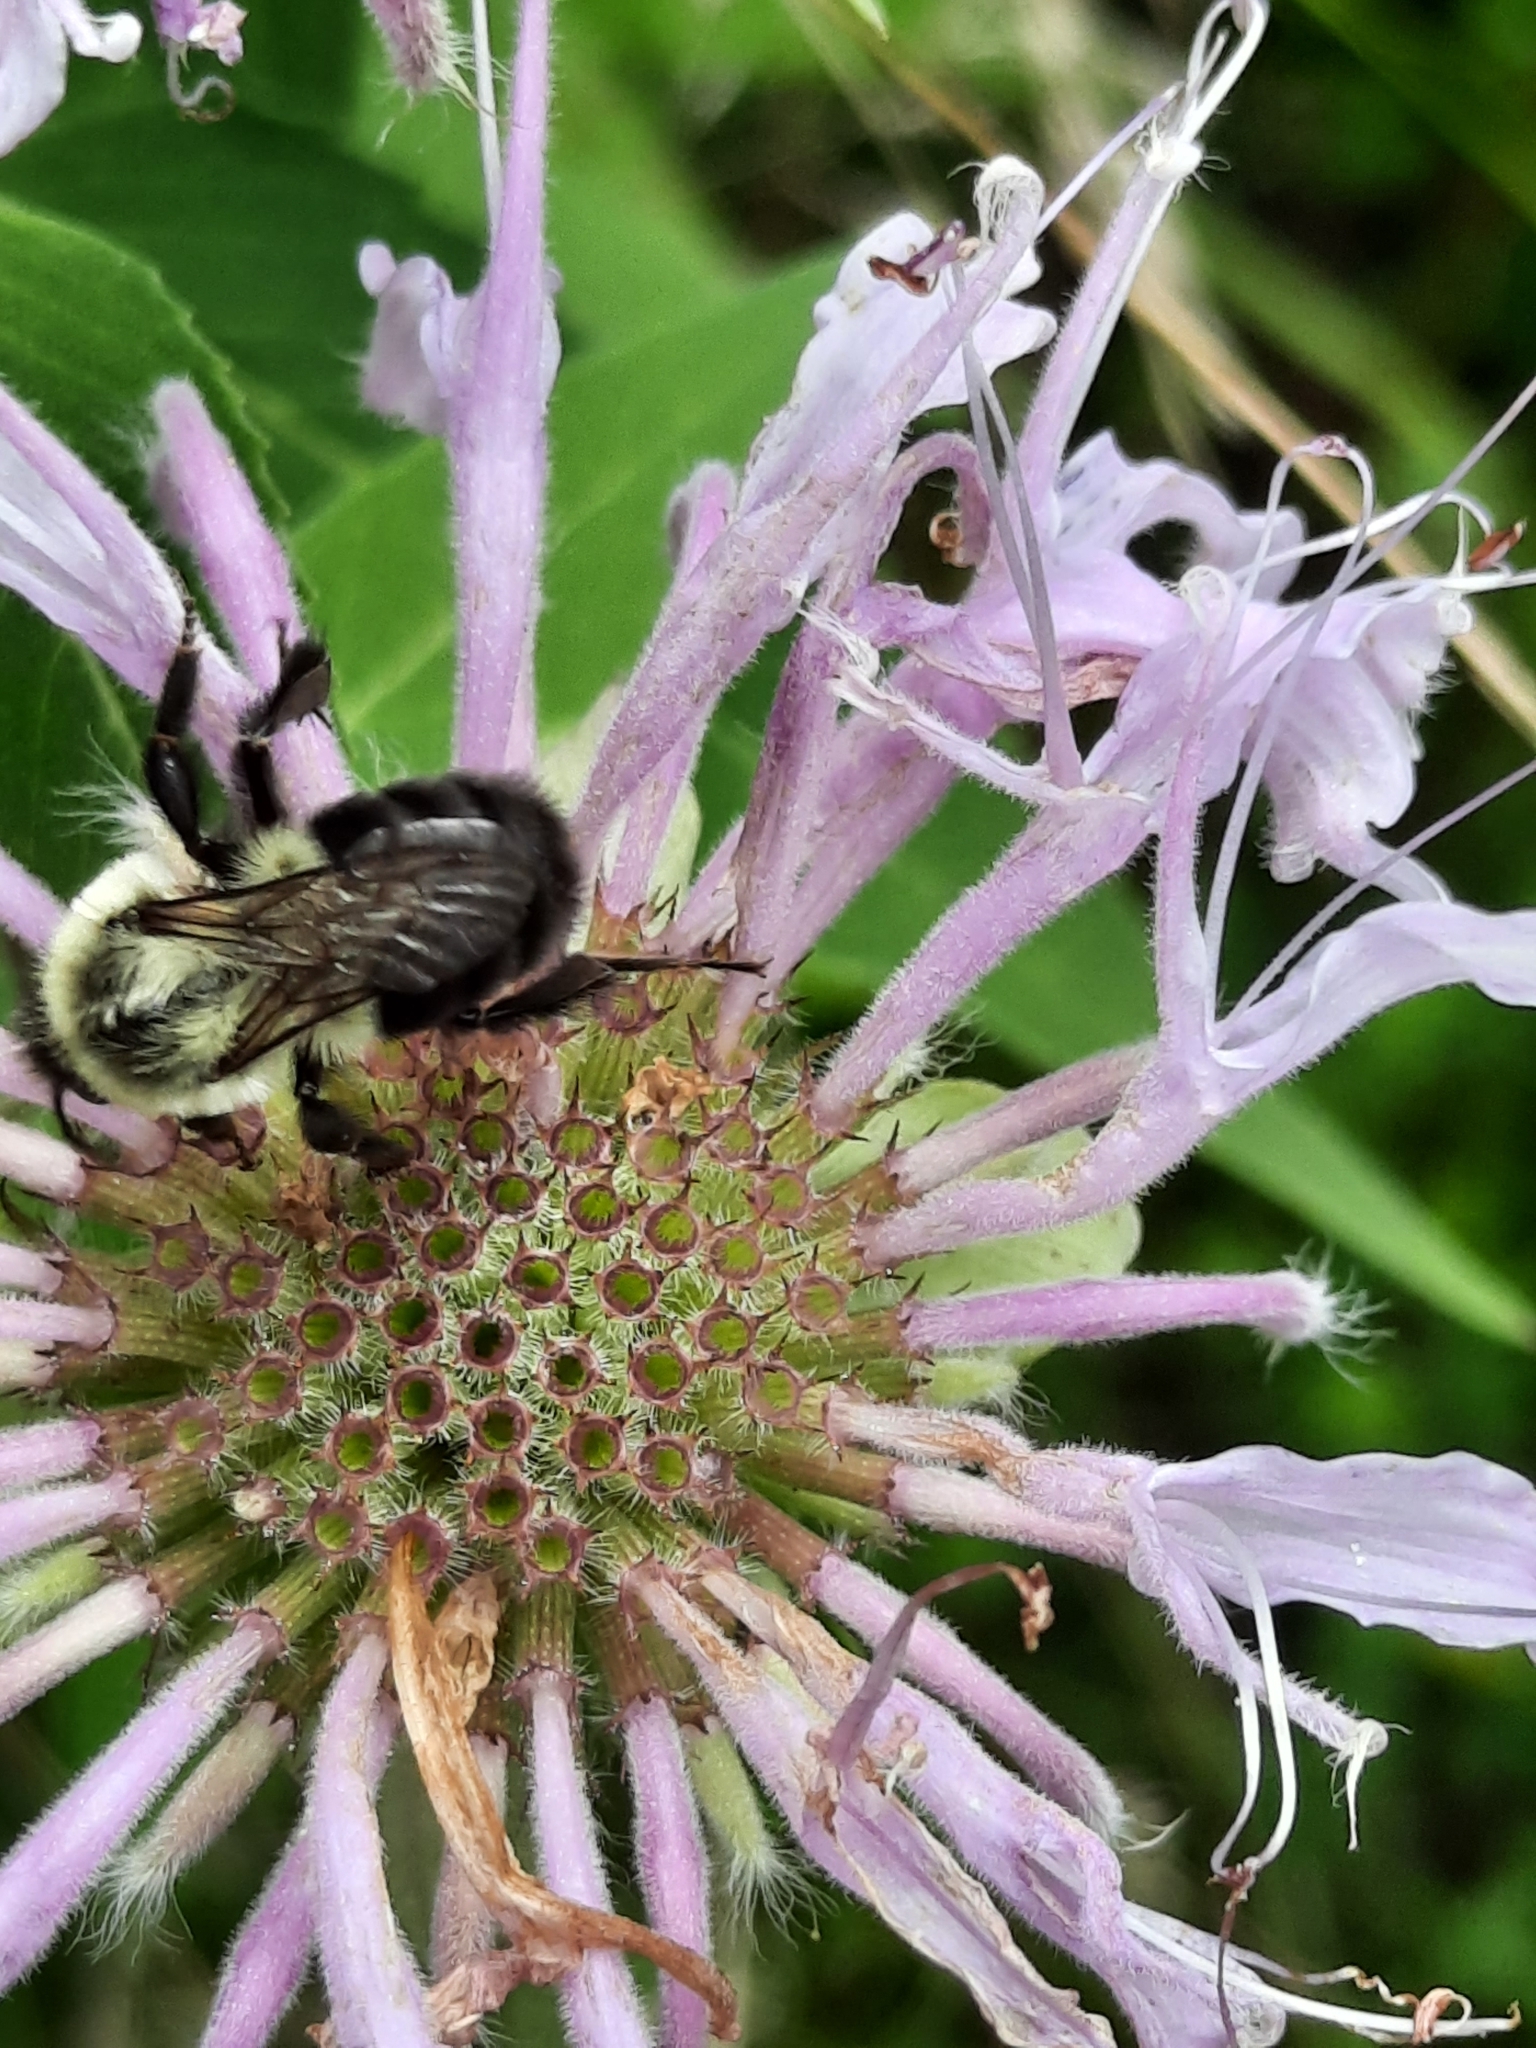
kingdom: Animalia
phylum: Arthropoda
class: Insecta
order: Hymenoptera
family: Apidae
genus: Bombus
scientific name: Bombus impatiens
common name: Common eastern bumble bee
